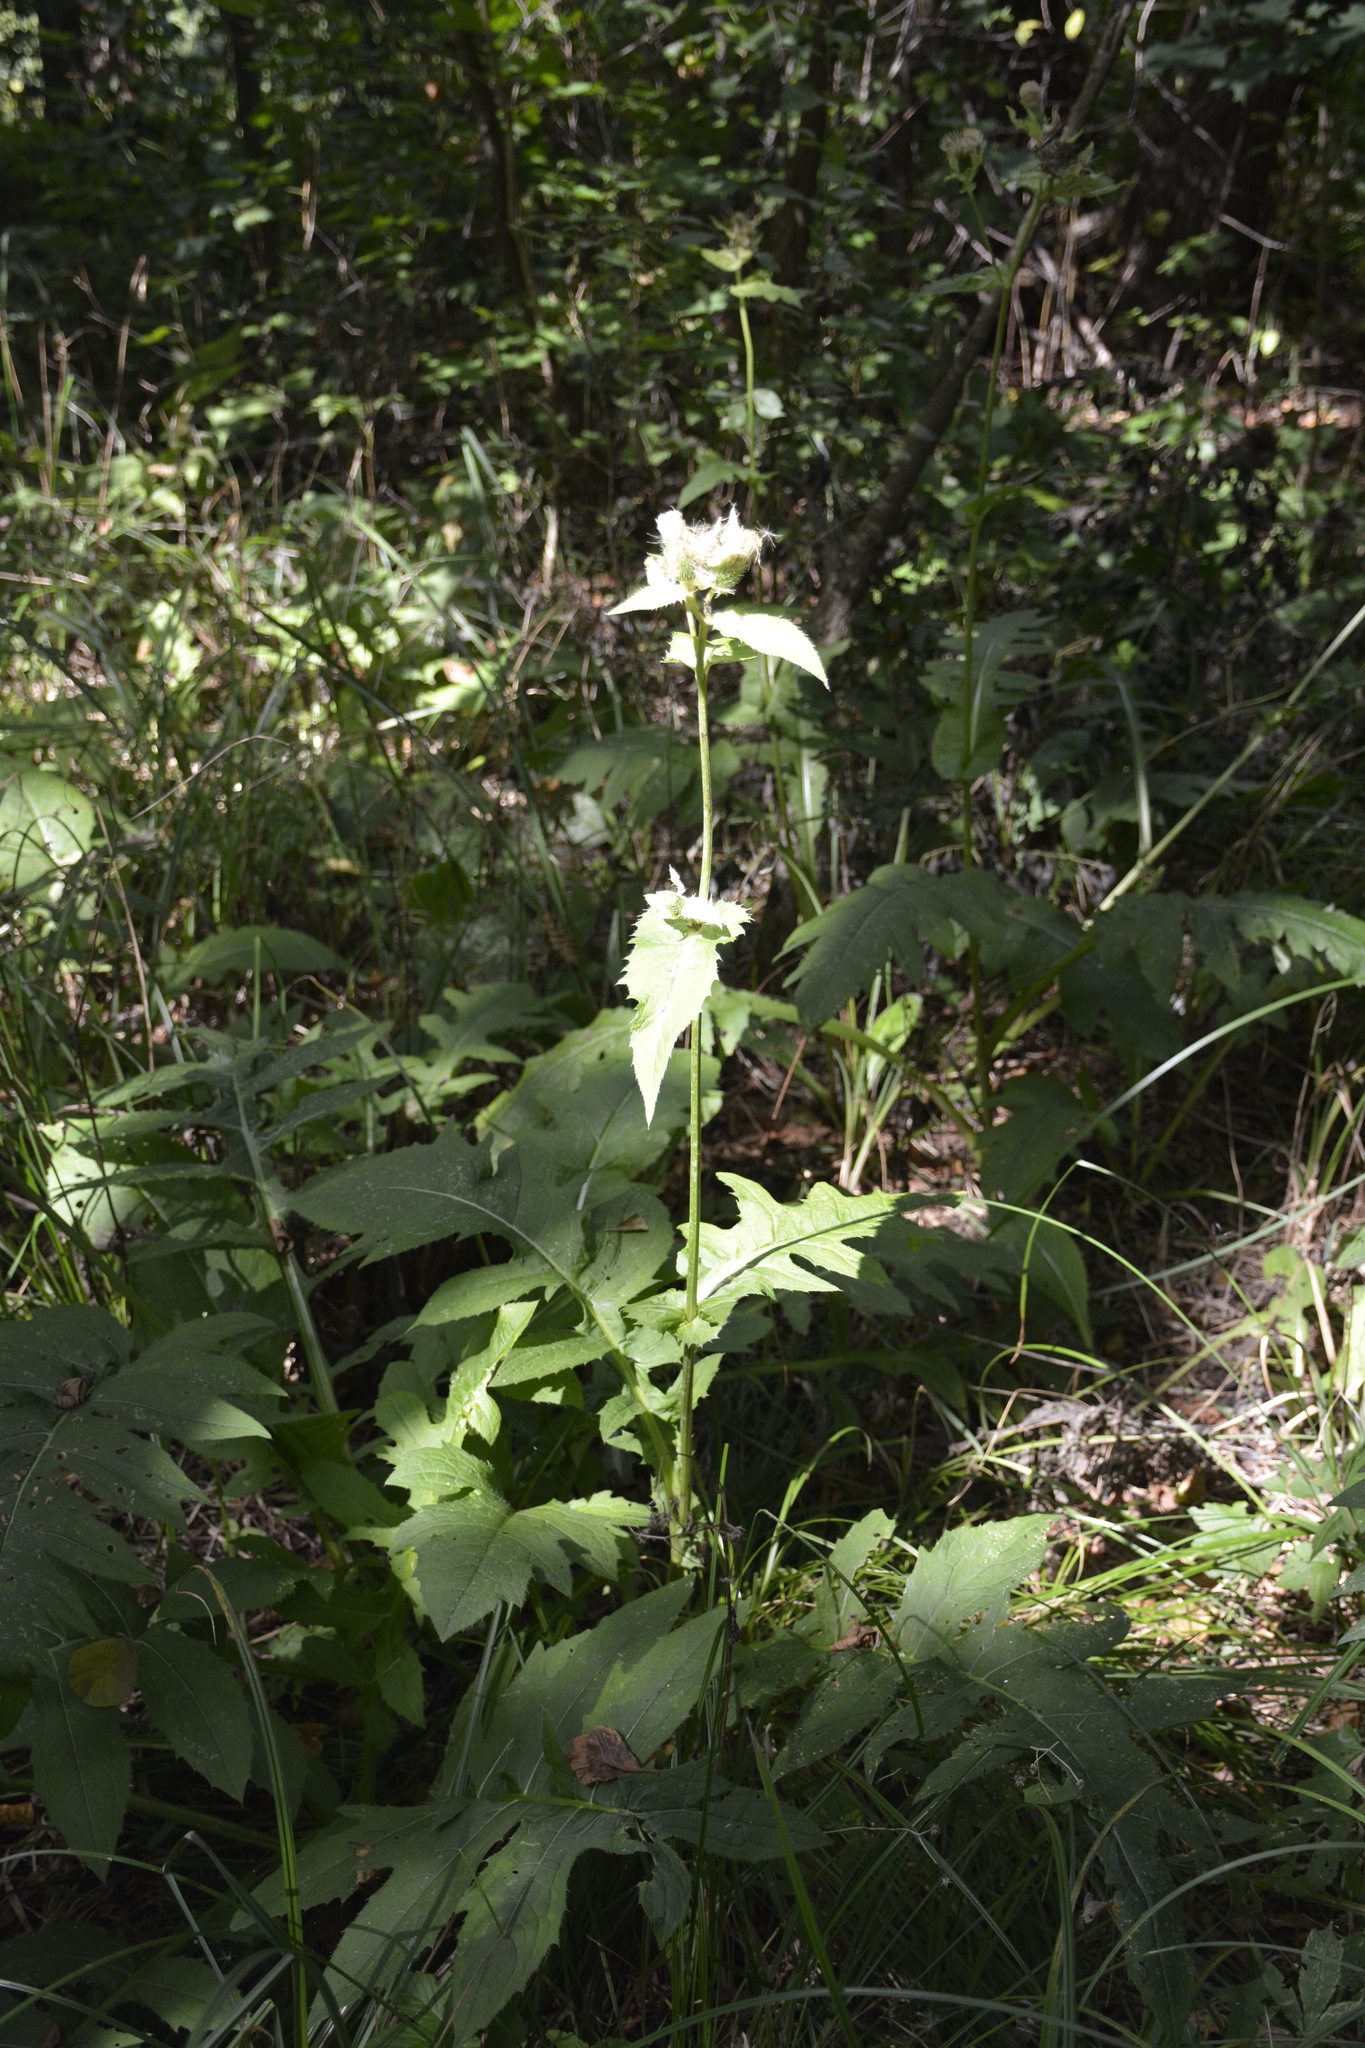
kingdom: Plantae
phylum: Tracheophyta
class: Magnoliopsida
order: Asterales
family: Asteraceae
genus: Cirsium
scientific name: Cirsium oleraceum
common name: Cabbage thistle
